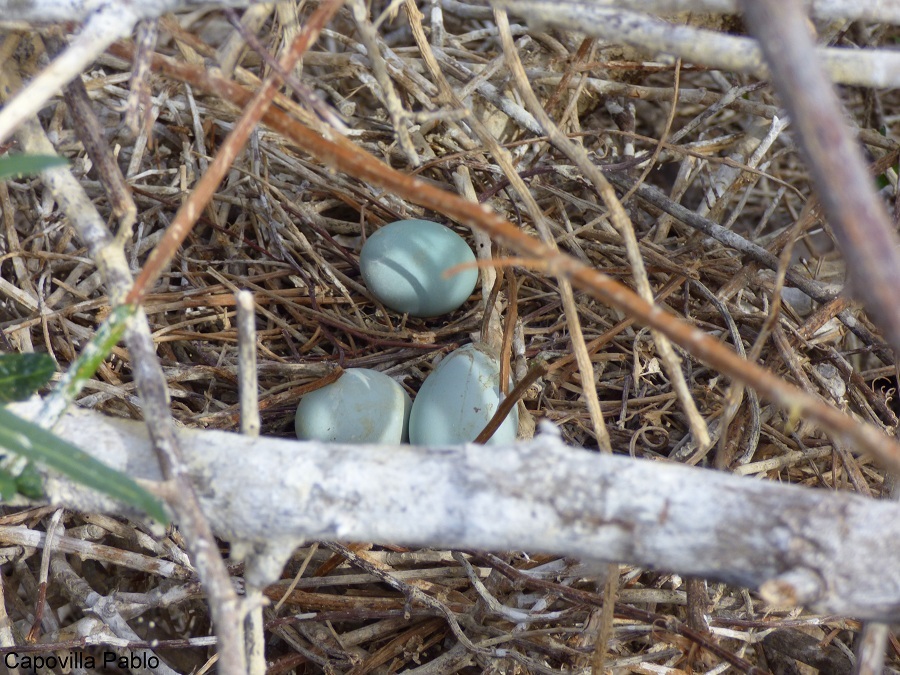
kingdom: Animalia
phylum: Chordata
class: Aves
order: Pelecaniformes
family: Ardeidae
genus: Nycticorax
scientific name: Nycticorax nycticorax
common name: Black-crowned night heron
